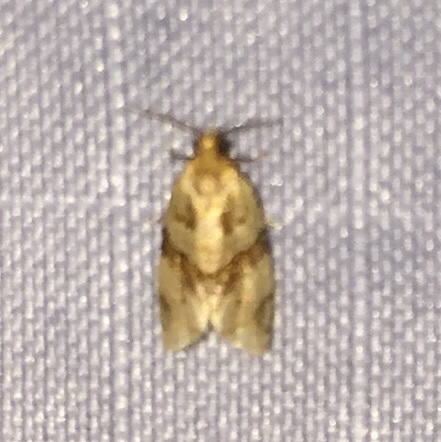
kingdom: Animalia
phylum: Arthropoda
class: Insecta
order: Lepidoptera
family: Tortricidae
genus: Clepsis
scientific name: Clepsis peritana
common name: Garden tortrix
